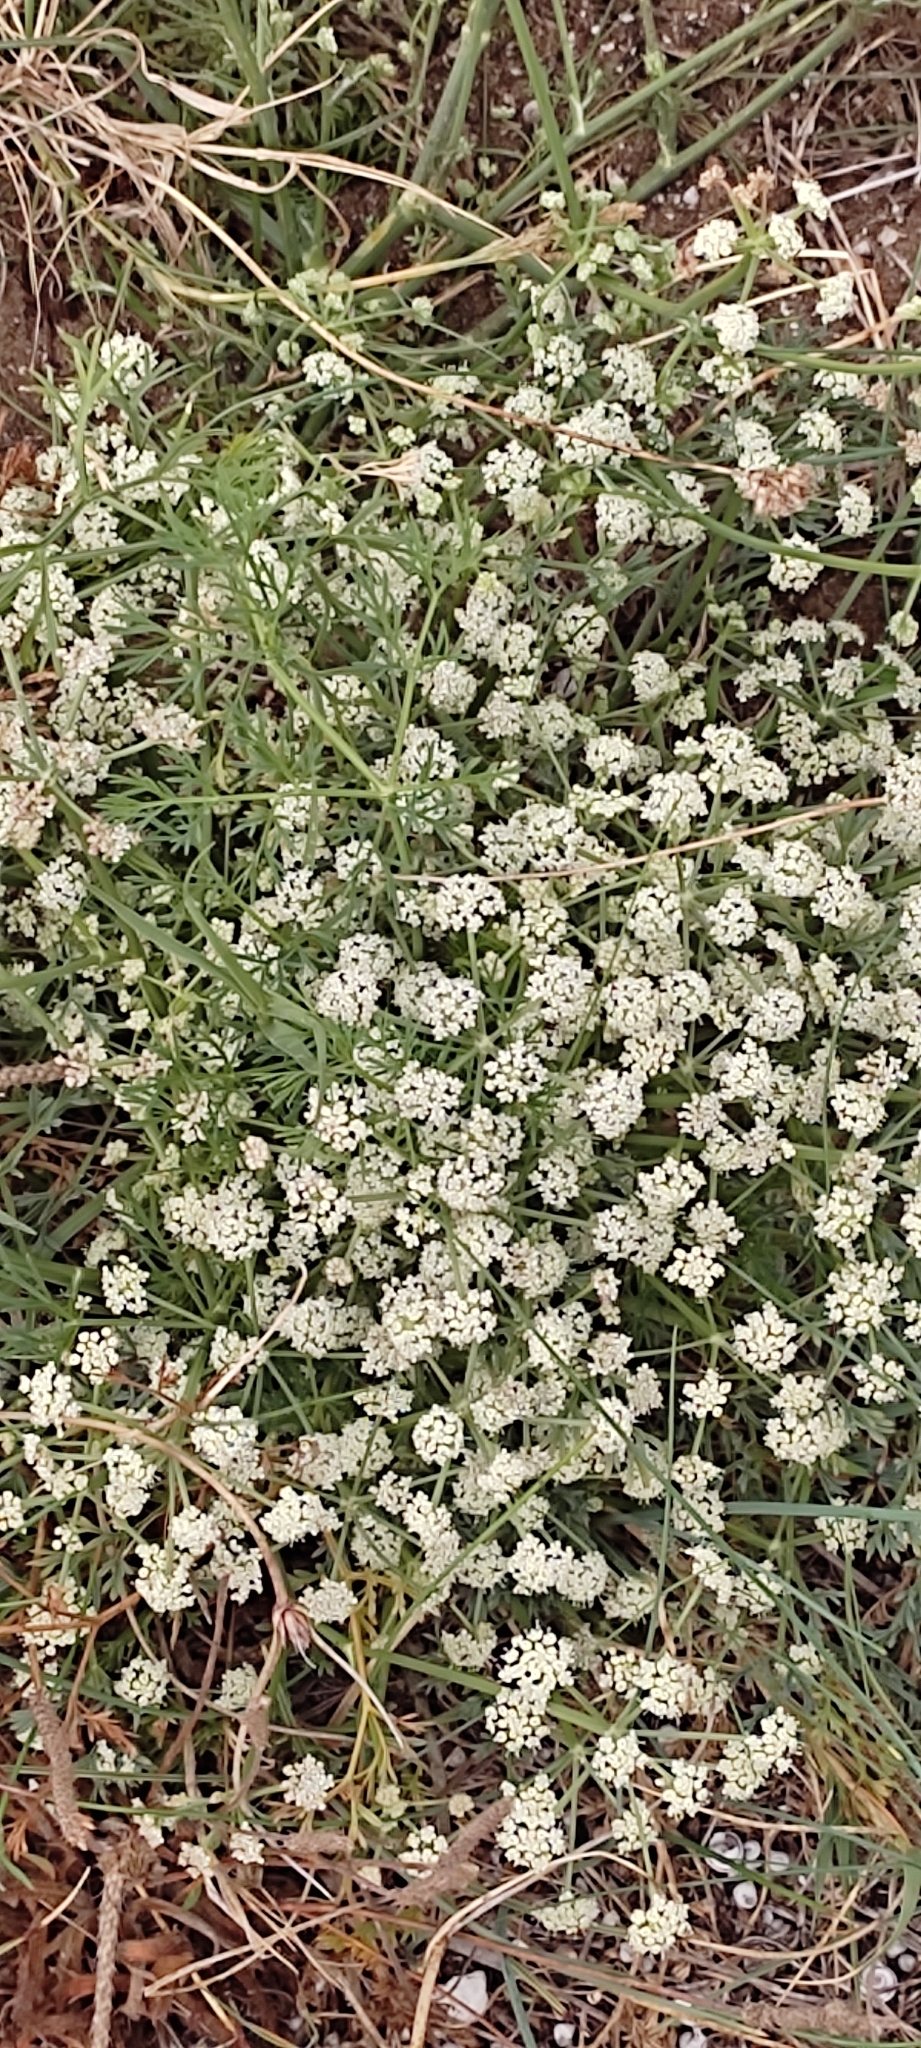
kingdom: Plantae
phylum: Tracheophyta
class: Liliopsida
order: Asparagales
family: Amaryllidaceae
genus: Pancratium
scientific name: Pancratium maritimum
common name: Sea-daffodil
